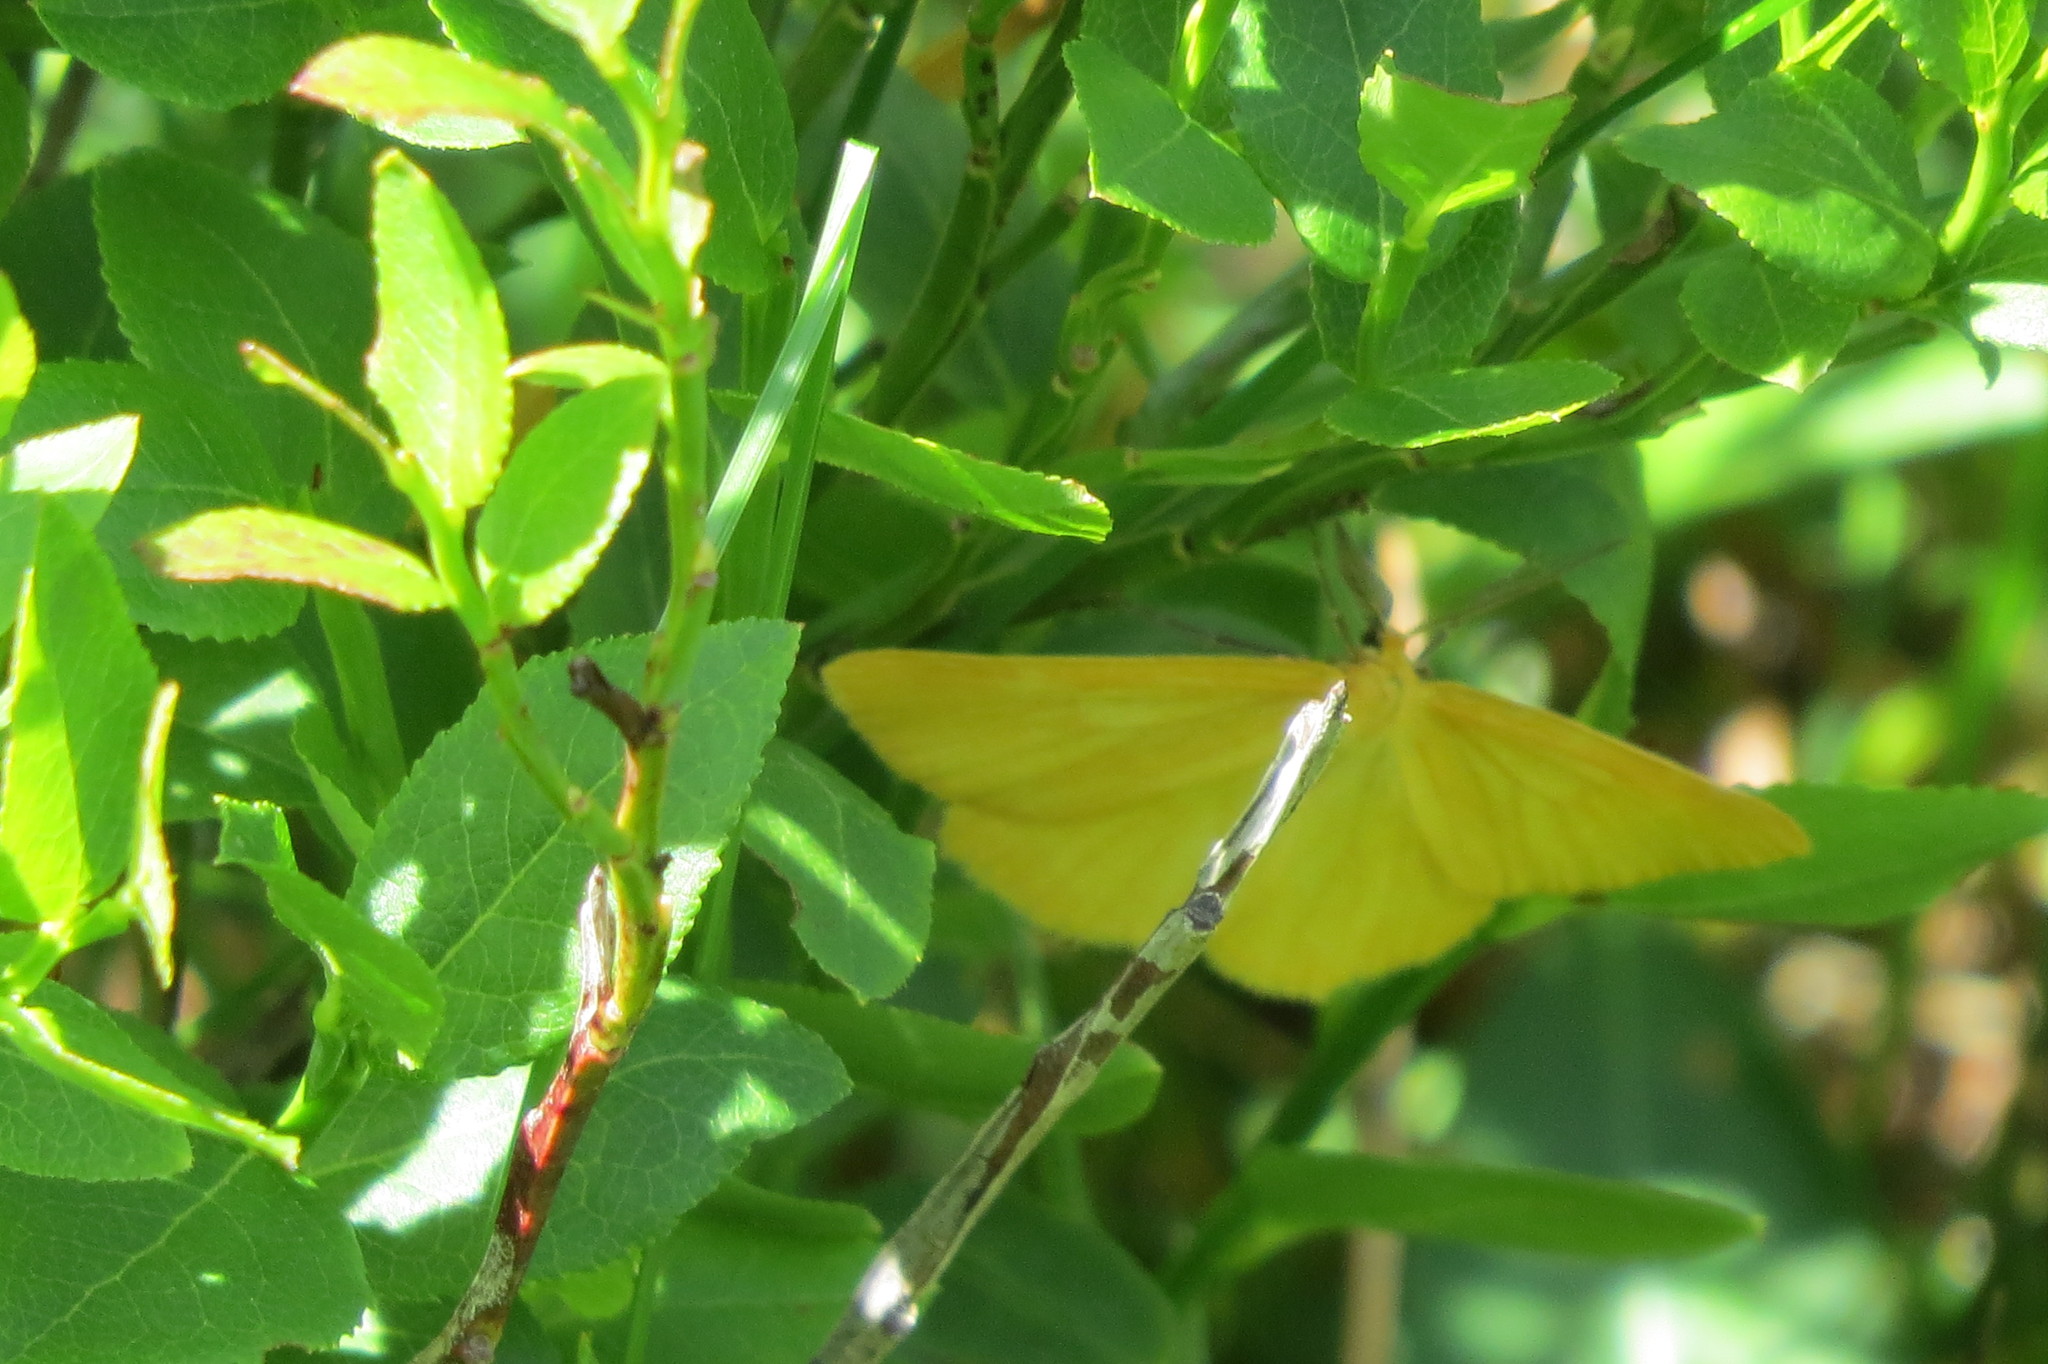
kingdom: Animalia
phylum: Arthropoda
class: Insecta
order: Lepidoptera
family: Geometridae
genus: Crocota
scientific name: Crocota tinctaria
